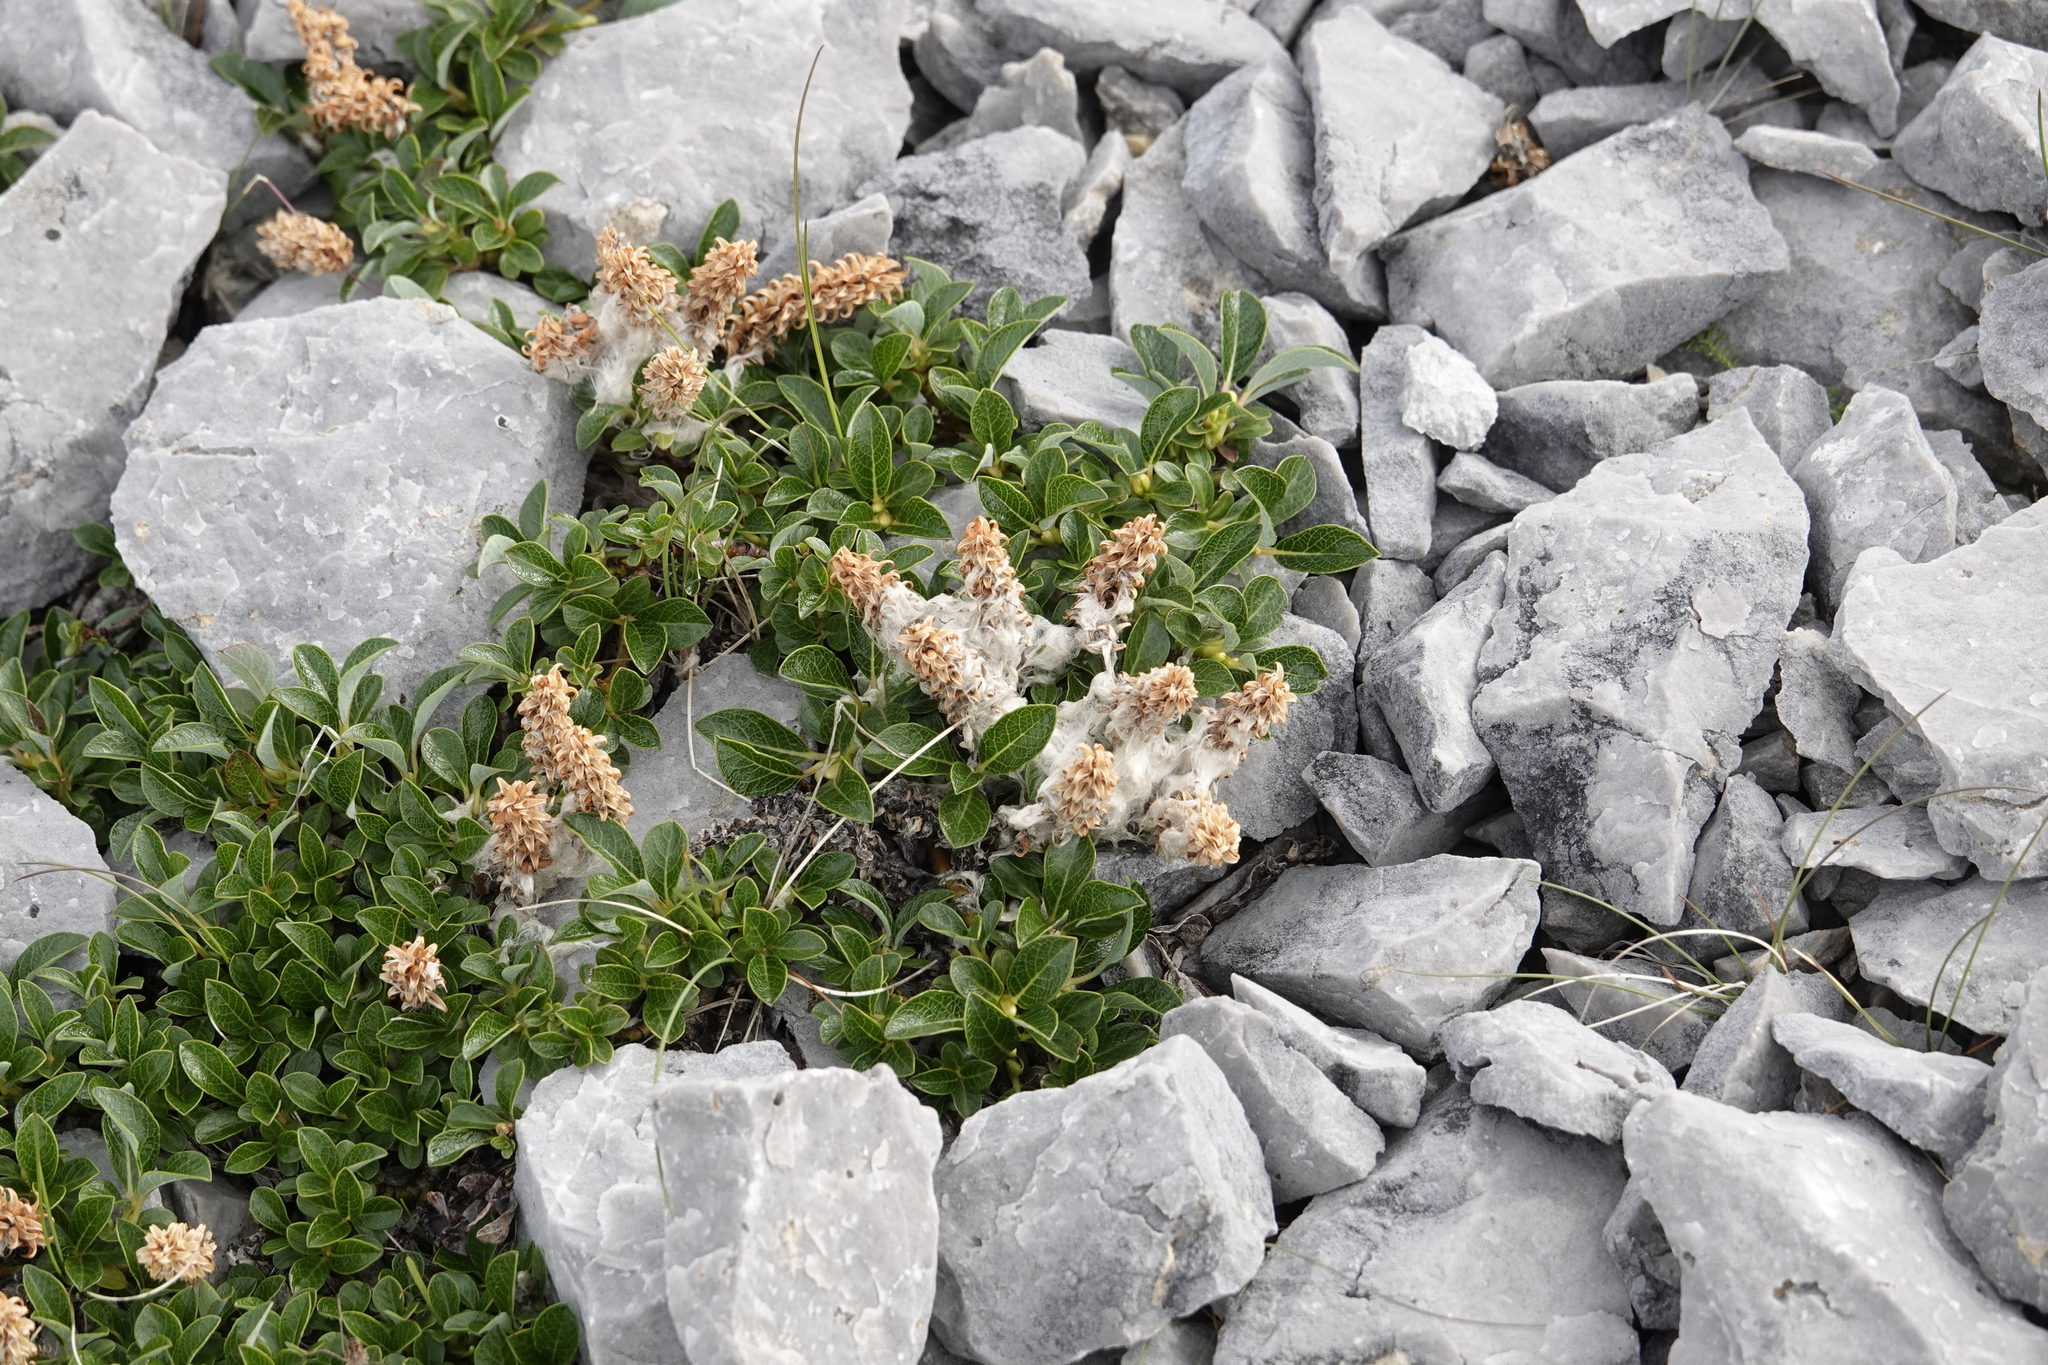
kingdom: Plantae
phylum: Tracheophyta
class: Magnoliopsida
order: Malpighiales
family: Salicaceae
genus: Salix
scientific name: Salix uva-ursi
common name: Bearberry willow
